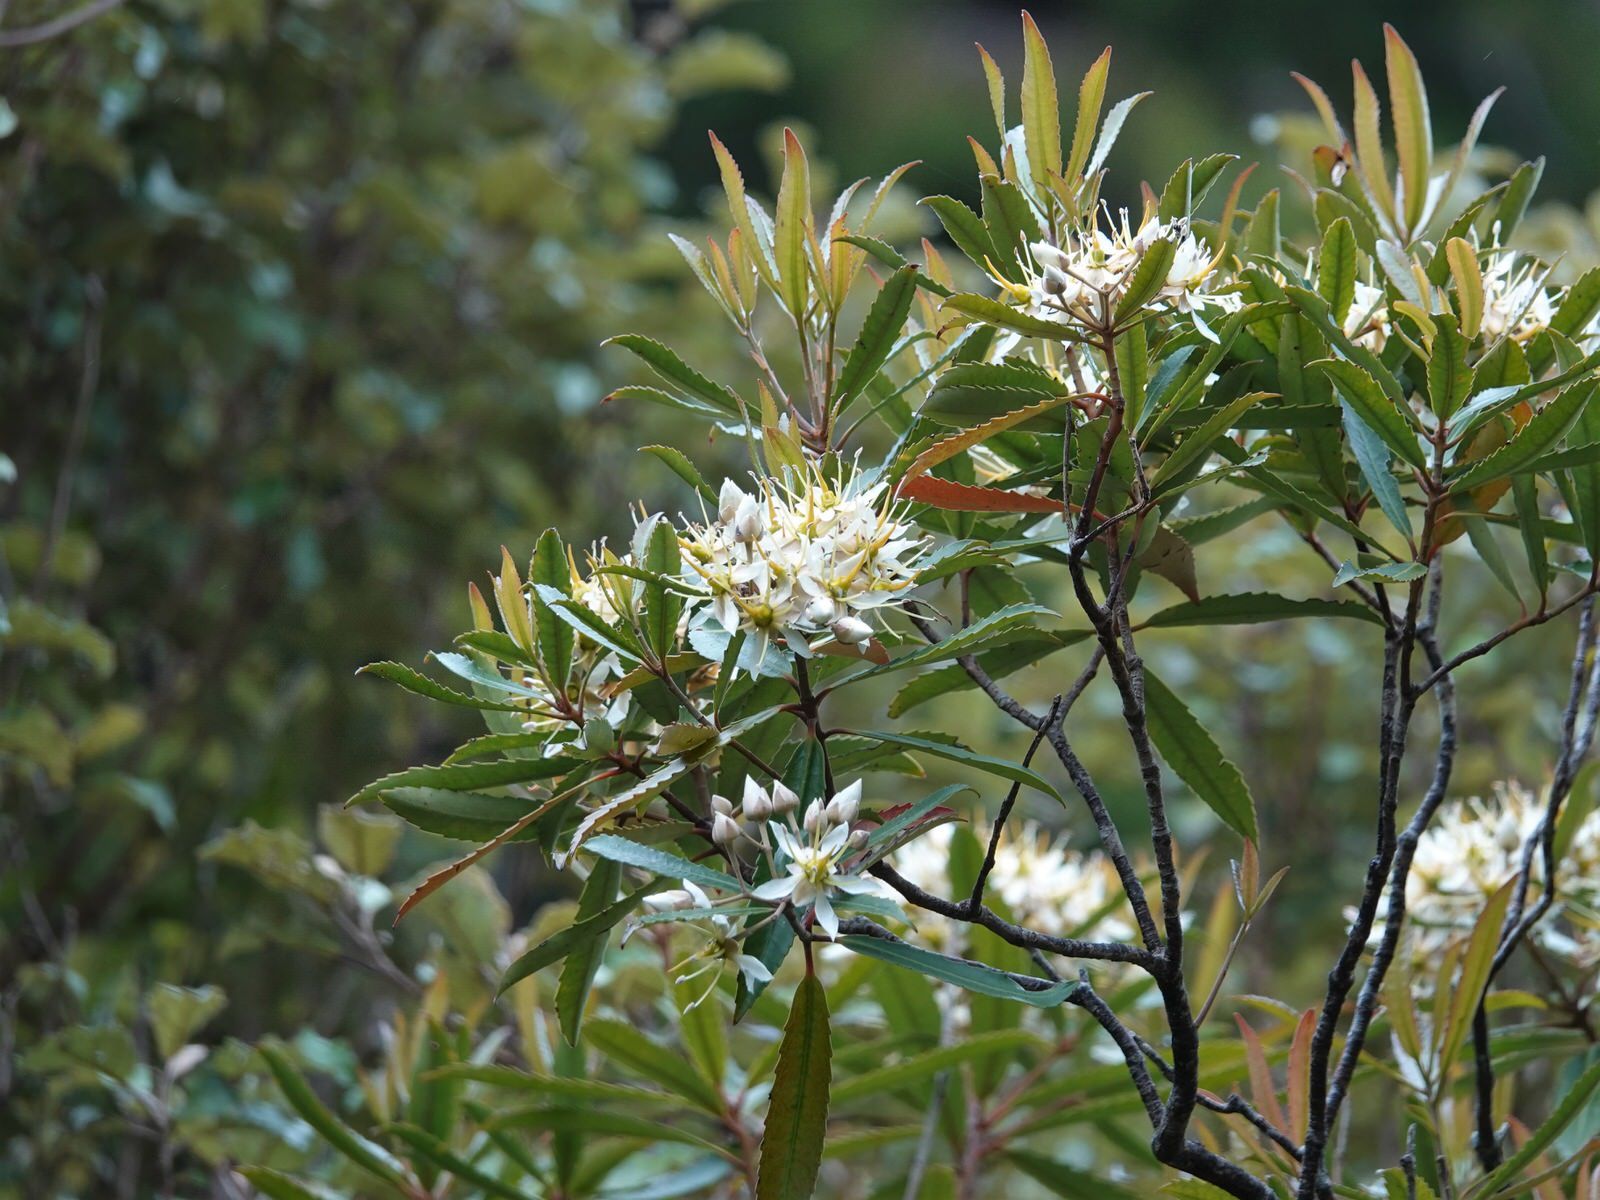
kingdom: Plantae
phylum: Tracheophyta
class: Magnoliopsida
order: Crossosomatales
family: Ixerbaceae
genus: Ixerba
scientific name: Ixerba brexioides
